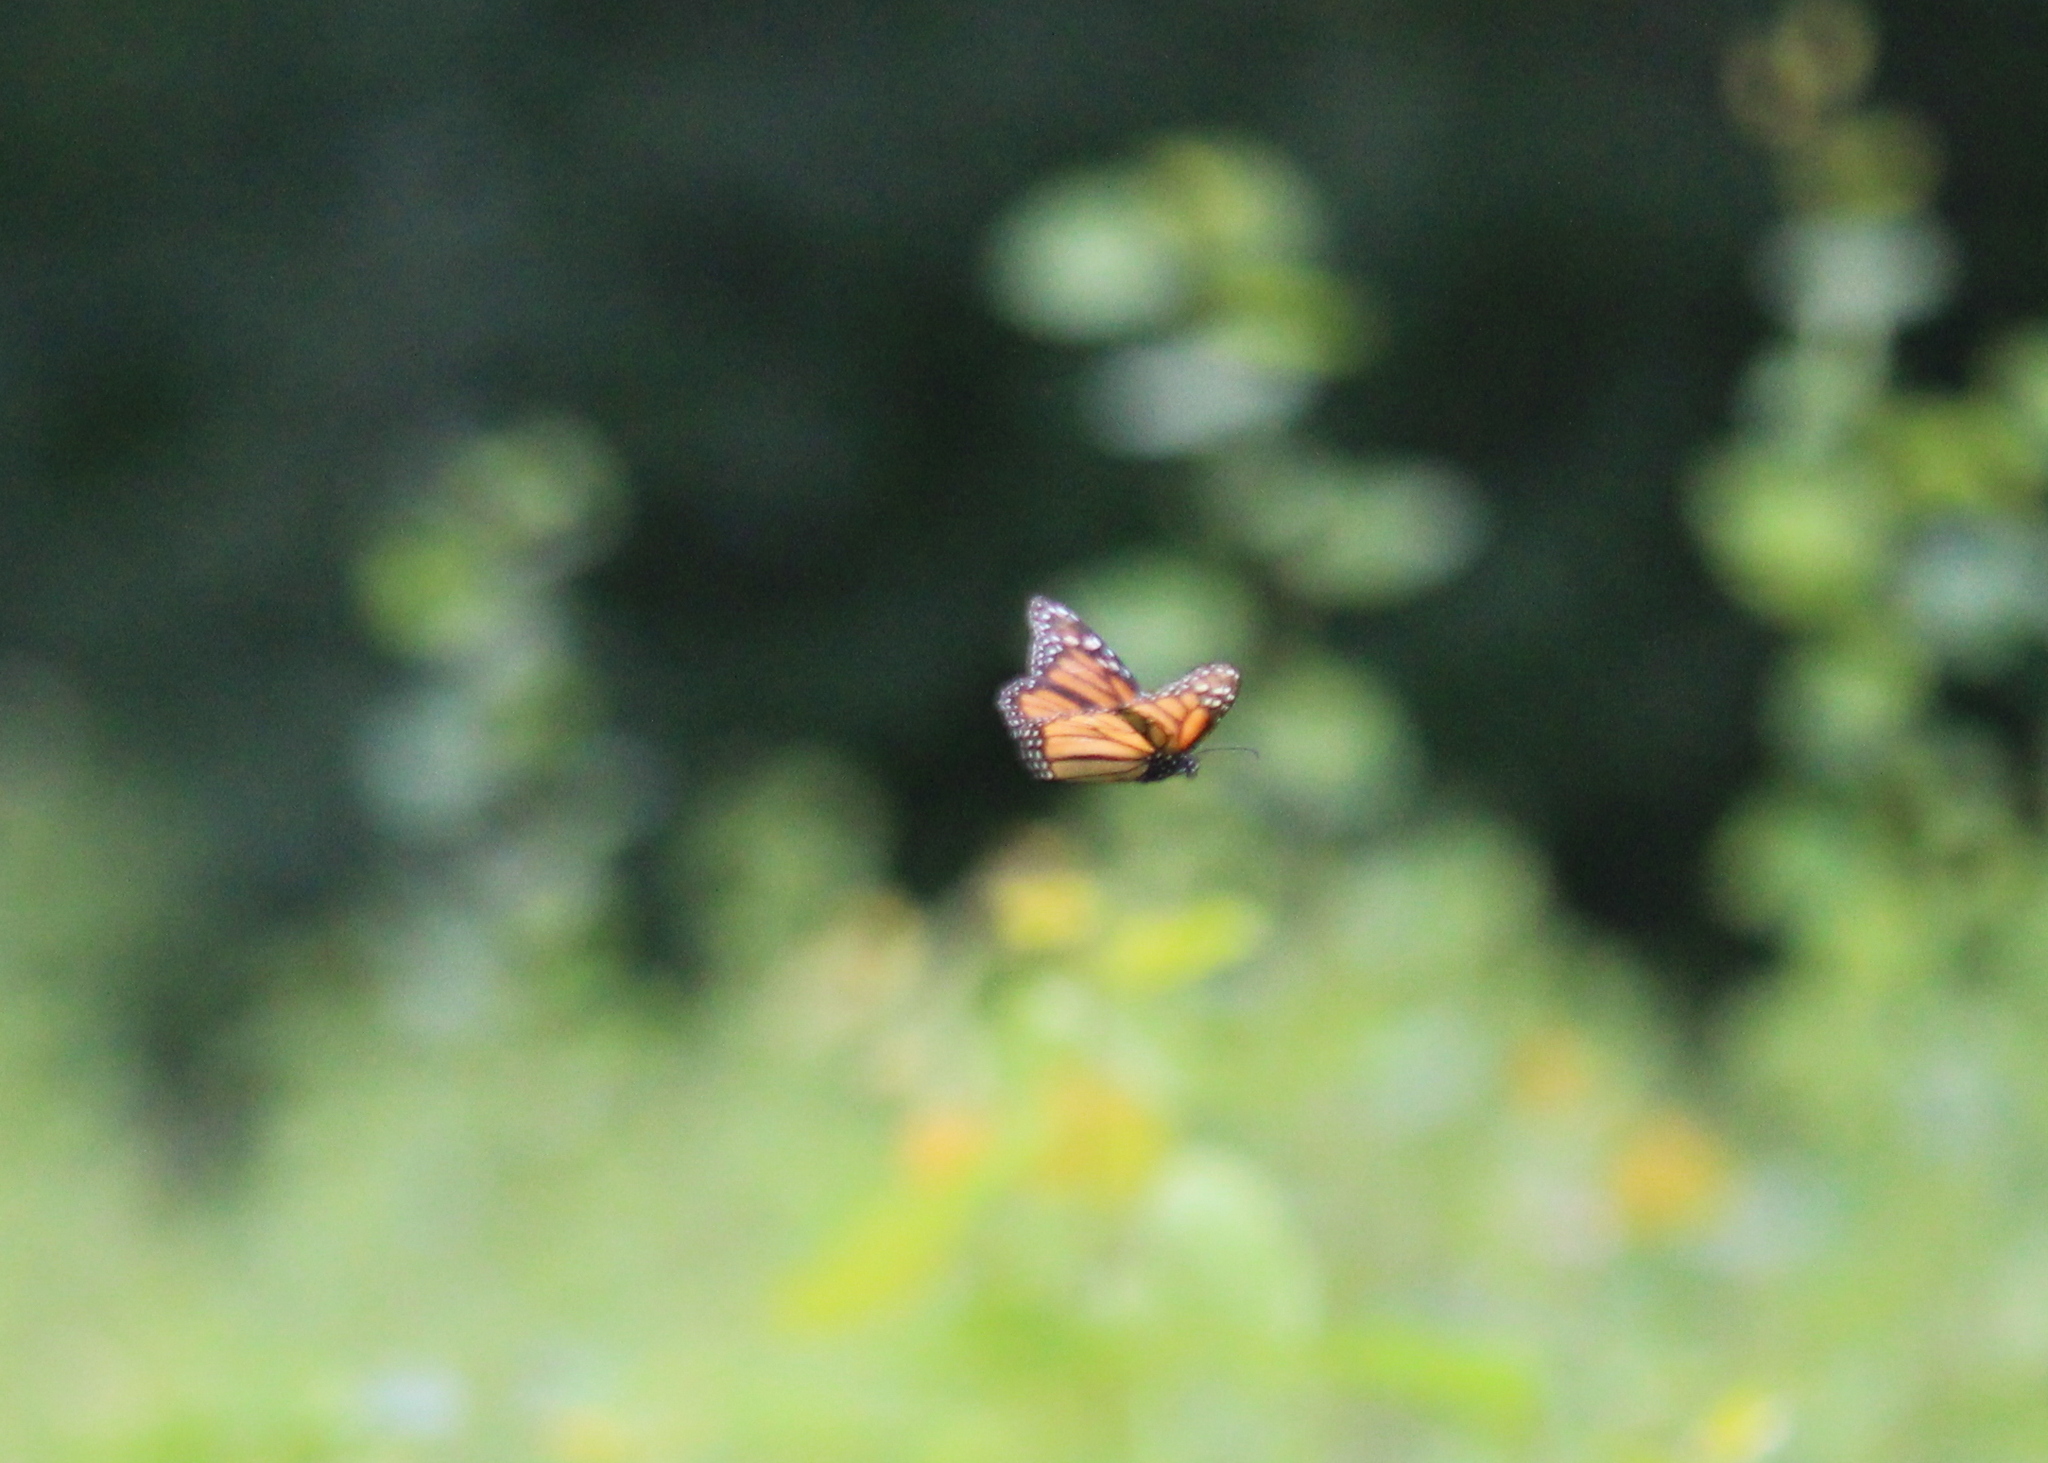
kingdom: Animalia
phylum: Arthropoda
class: Insecta
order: Lepidoptera
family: Nymphalidae
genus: Danaus
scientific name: Danaus plexippus
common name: Monarch
